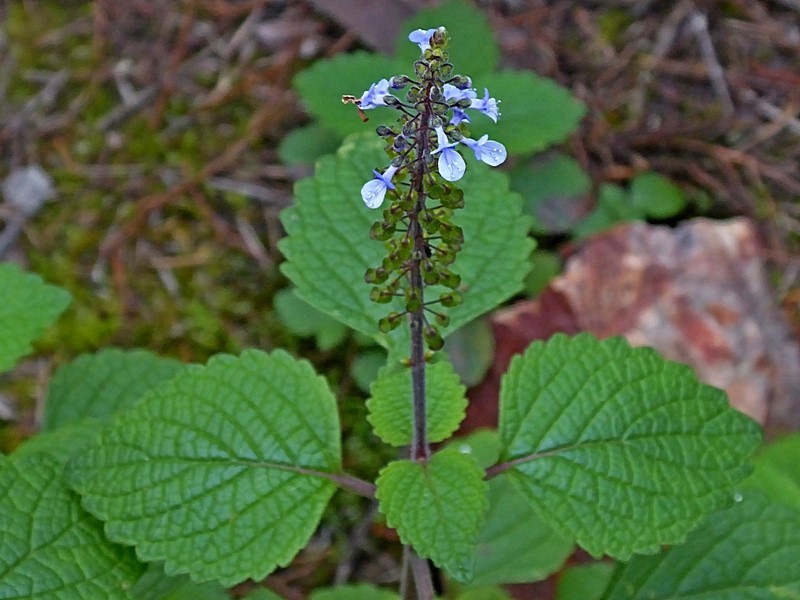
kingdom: Plantae
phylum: Tracheophyta
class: Magnoliopsida
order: Lamiales
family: Lamiaceae
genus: Coleus
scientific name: Coleus australis
